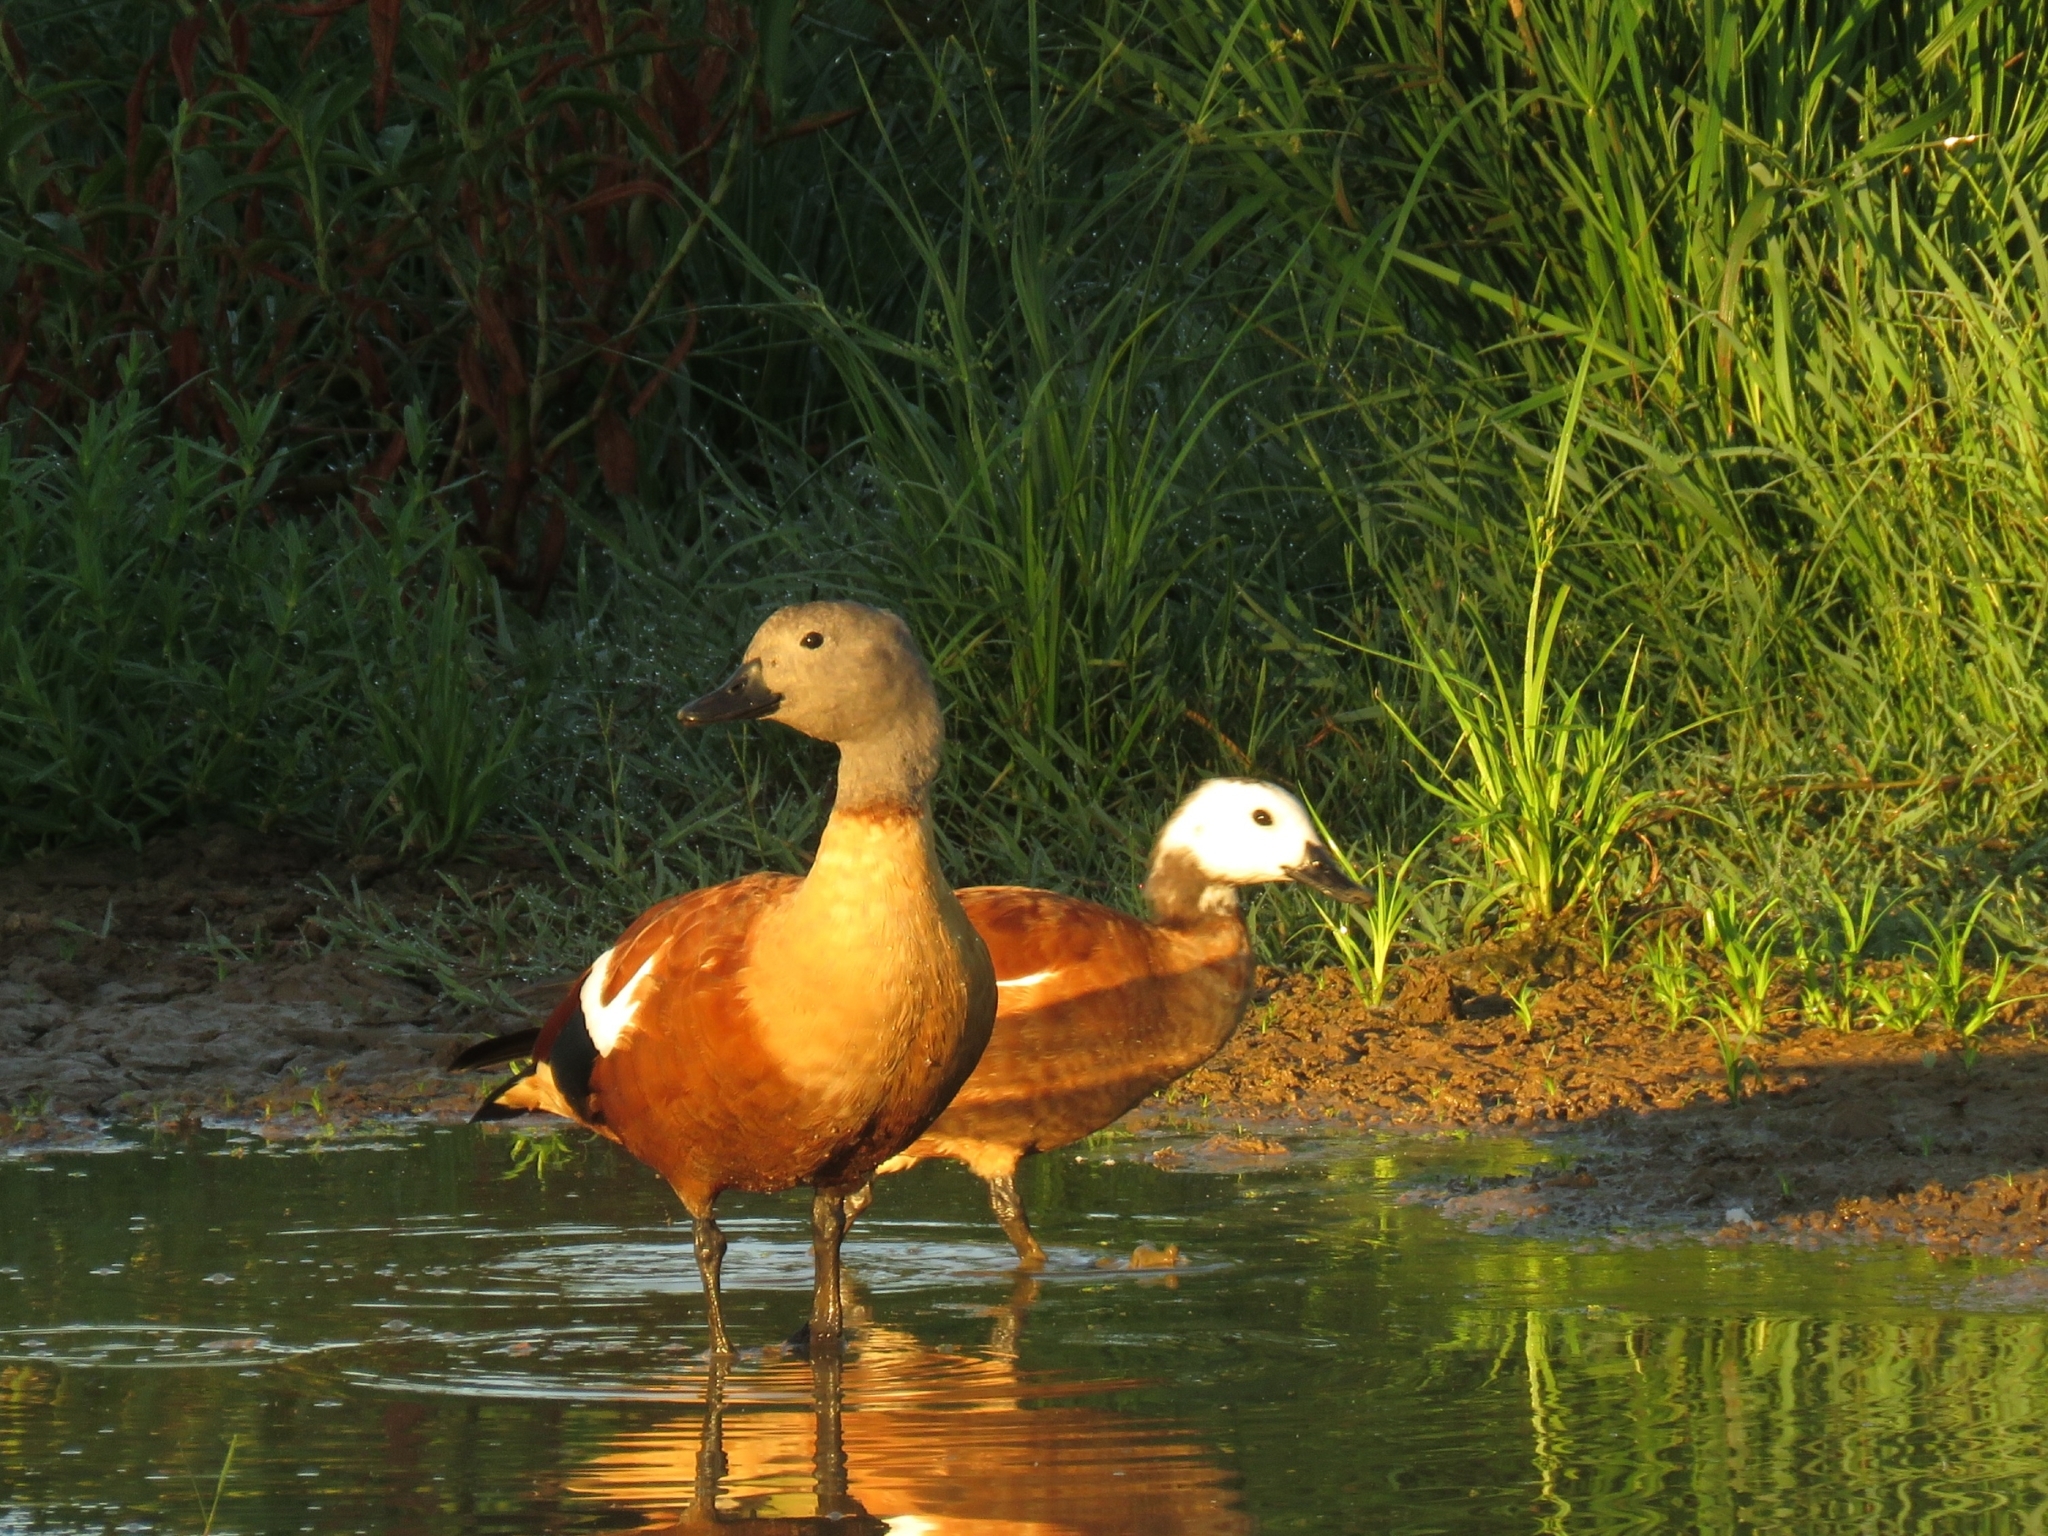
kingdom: Animalia
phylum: Chordata
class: Aves
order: Anseriformes
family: Anatidae
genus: Tadorna
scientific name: Tadorna cana
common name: South african shelduck
